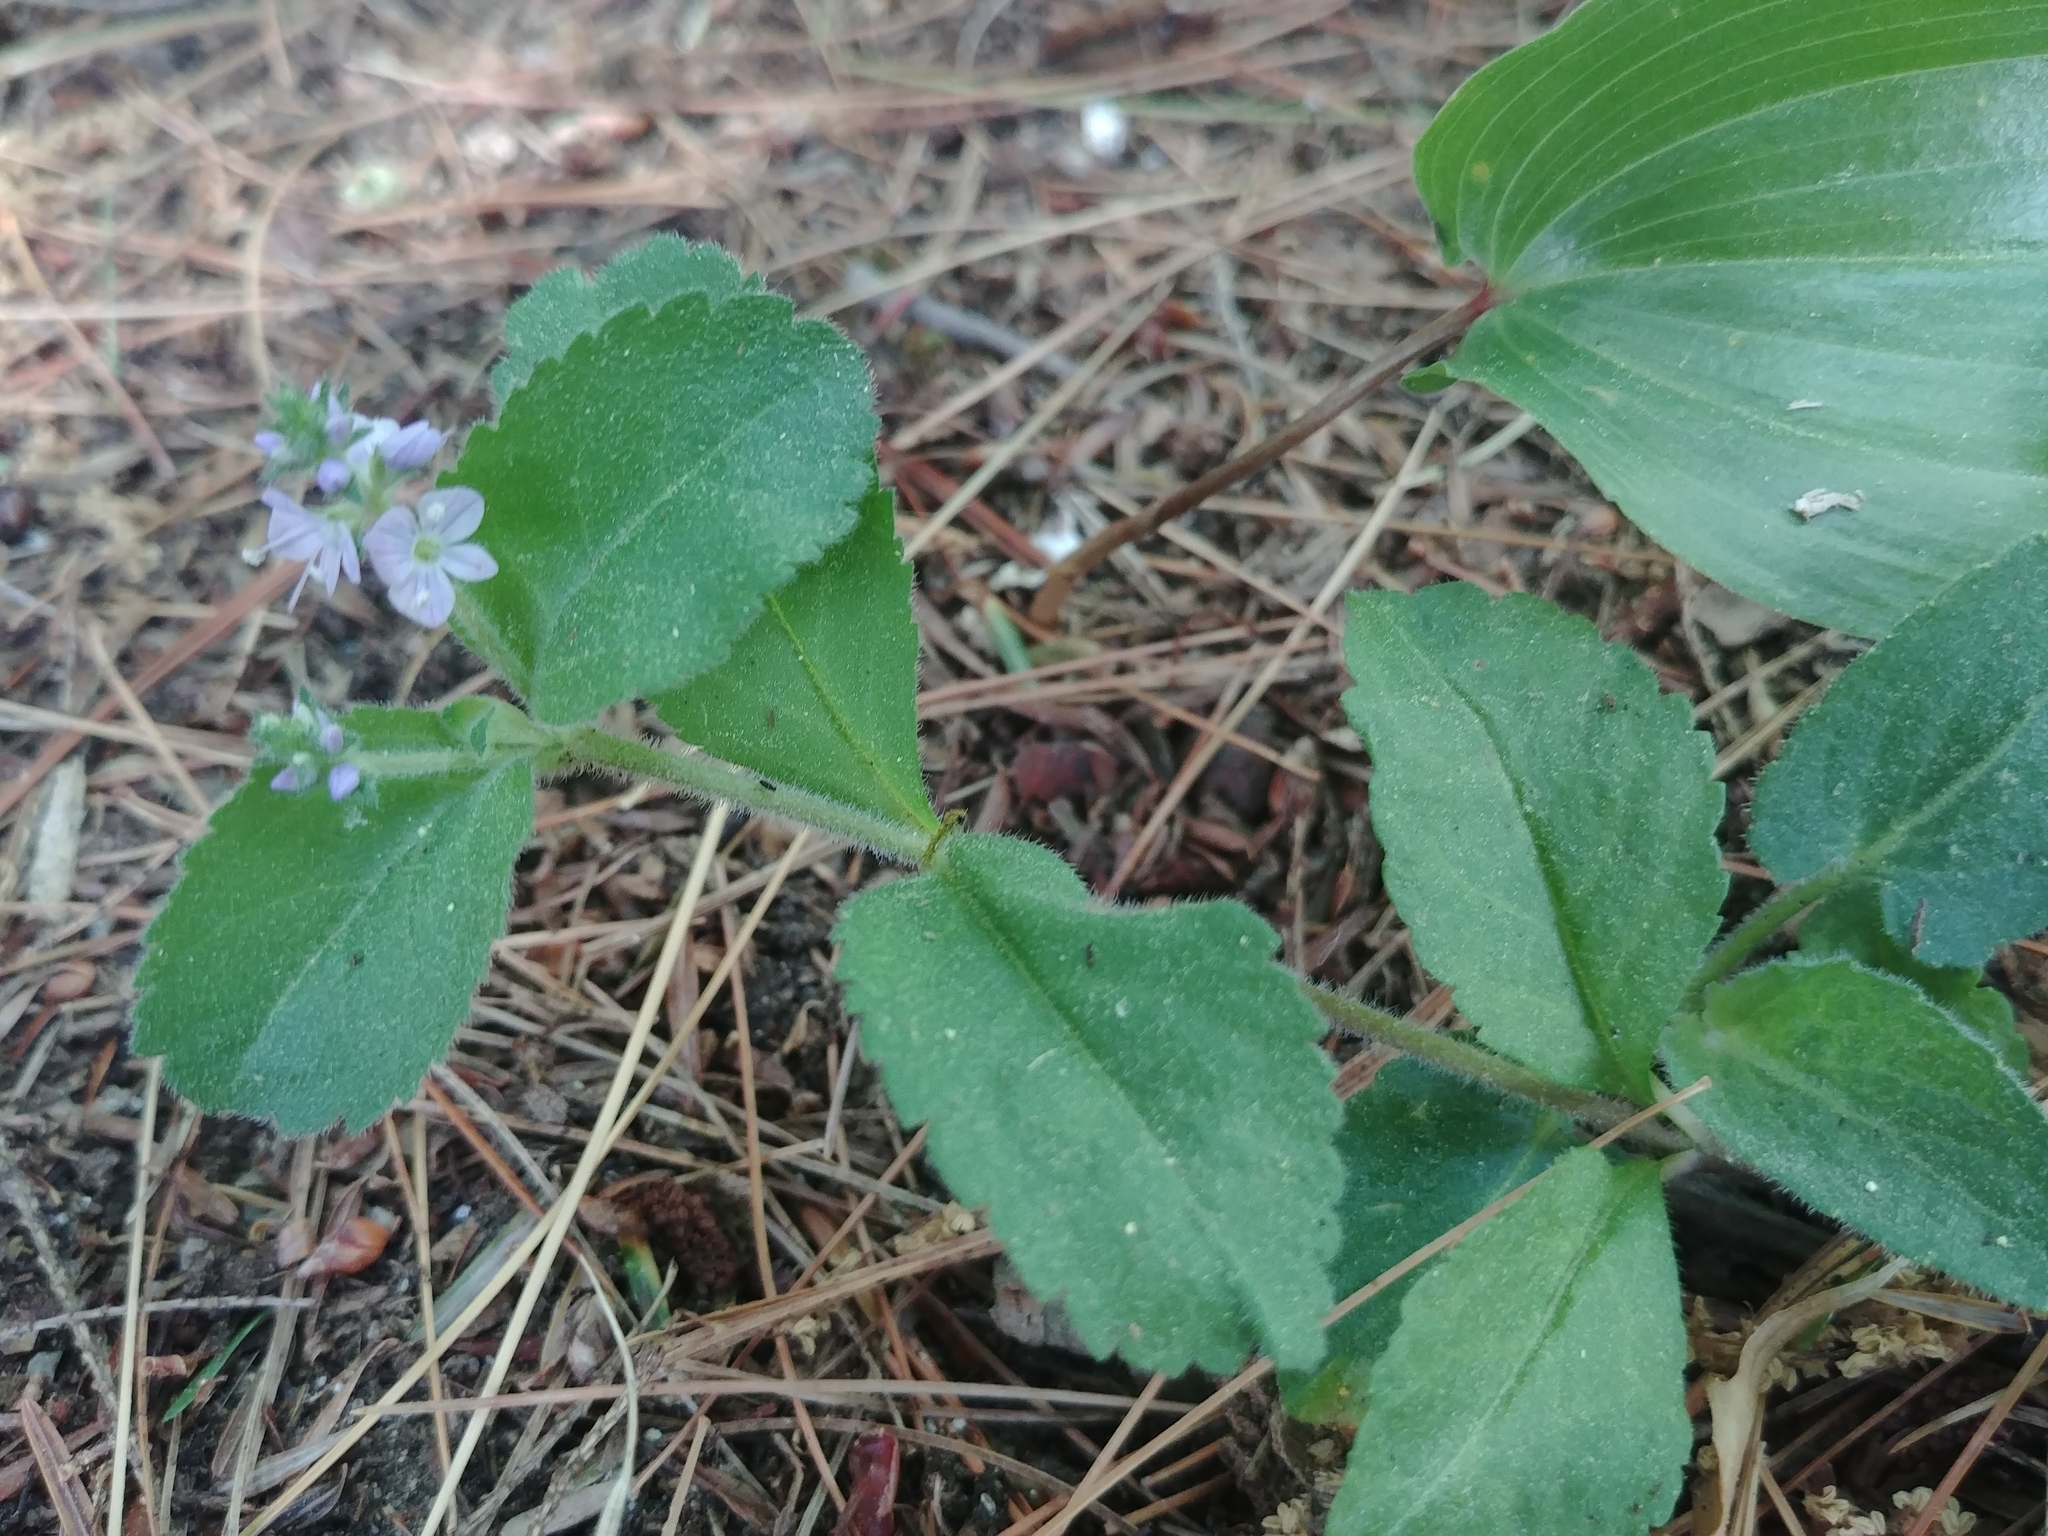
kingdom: Plantae
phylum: Tracheophyta
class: Magnoliopsida
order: Lamiales
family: Plantaginaceae
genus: Veronica
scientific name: Veronica officinalis
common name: Common speedwell
